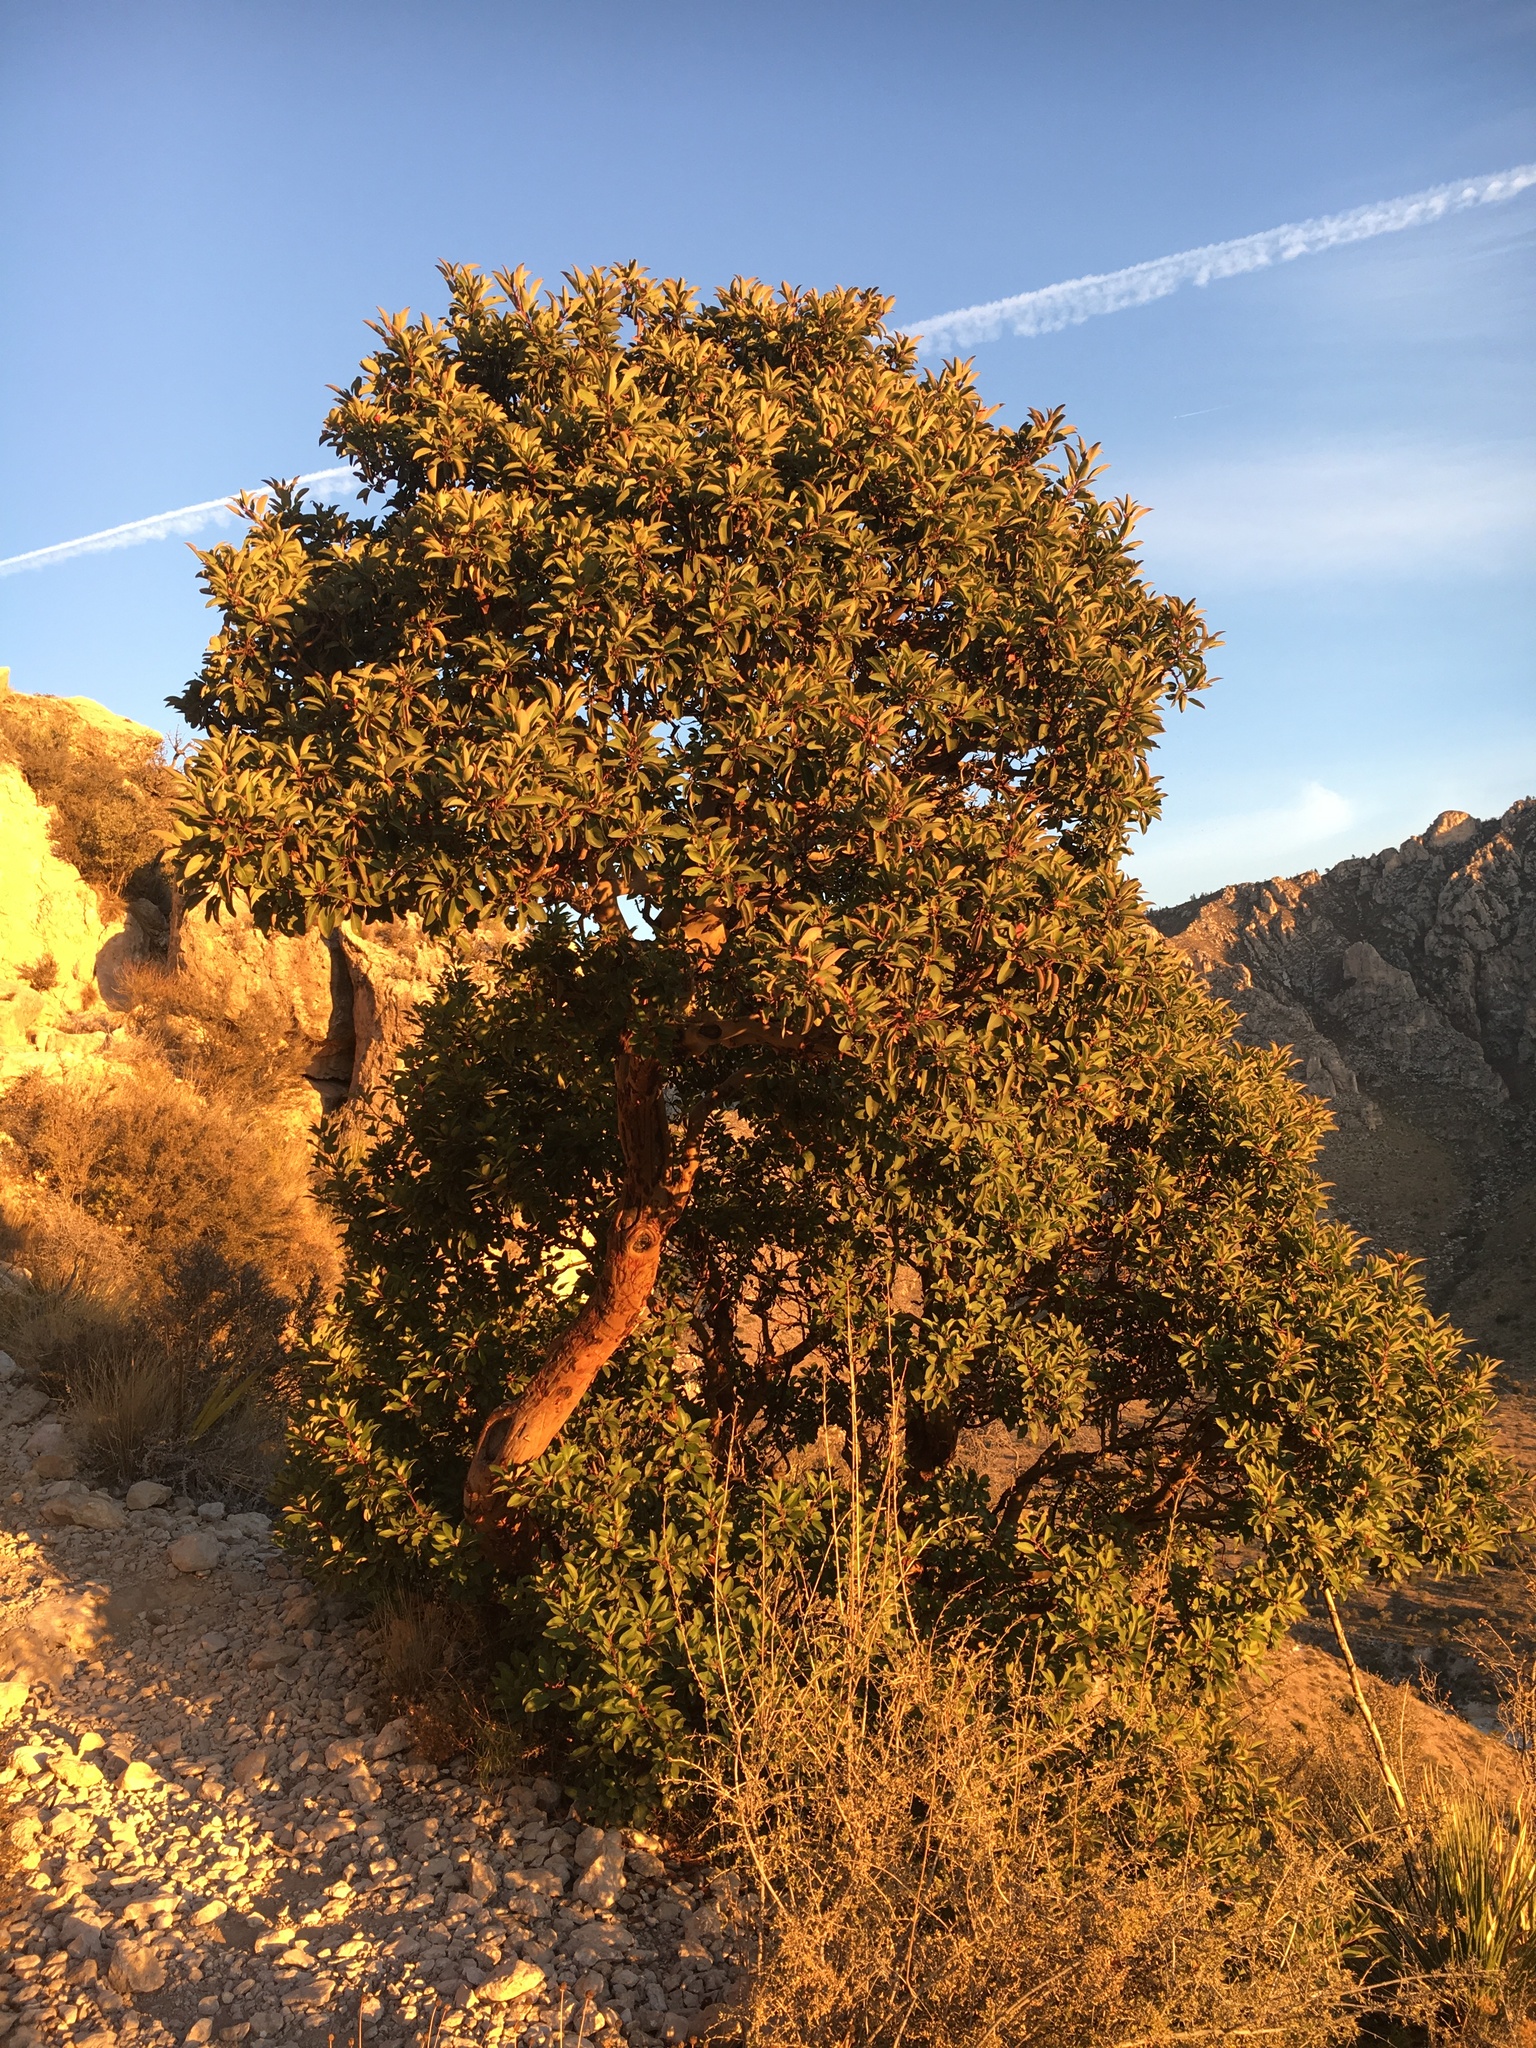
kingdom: Plantae
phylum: Tracheophyta
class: Magnoliopsida
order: Ericales
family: Ericaceae
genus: Arbutus
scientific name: Arbutus xalapensis
